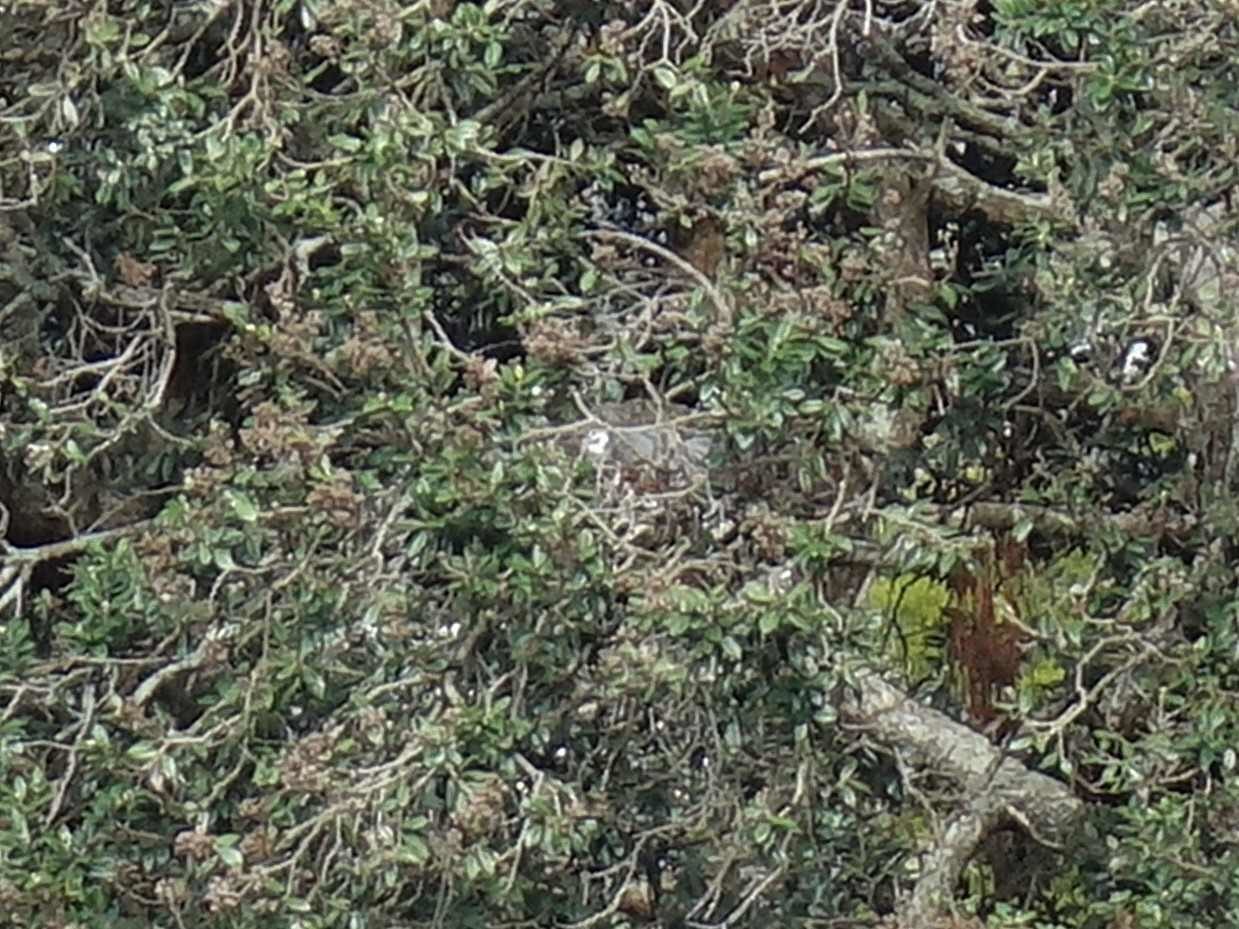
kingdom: Animalia
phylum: Chordata
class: Aves
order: Pelecaniformes
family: Ardeidae
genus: Egretta
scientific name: Egretta novaehollandiae
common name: White-faced heron
